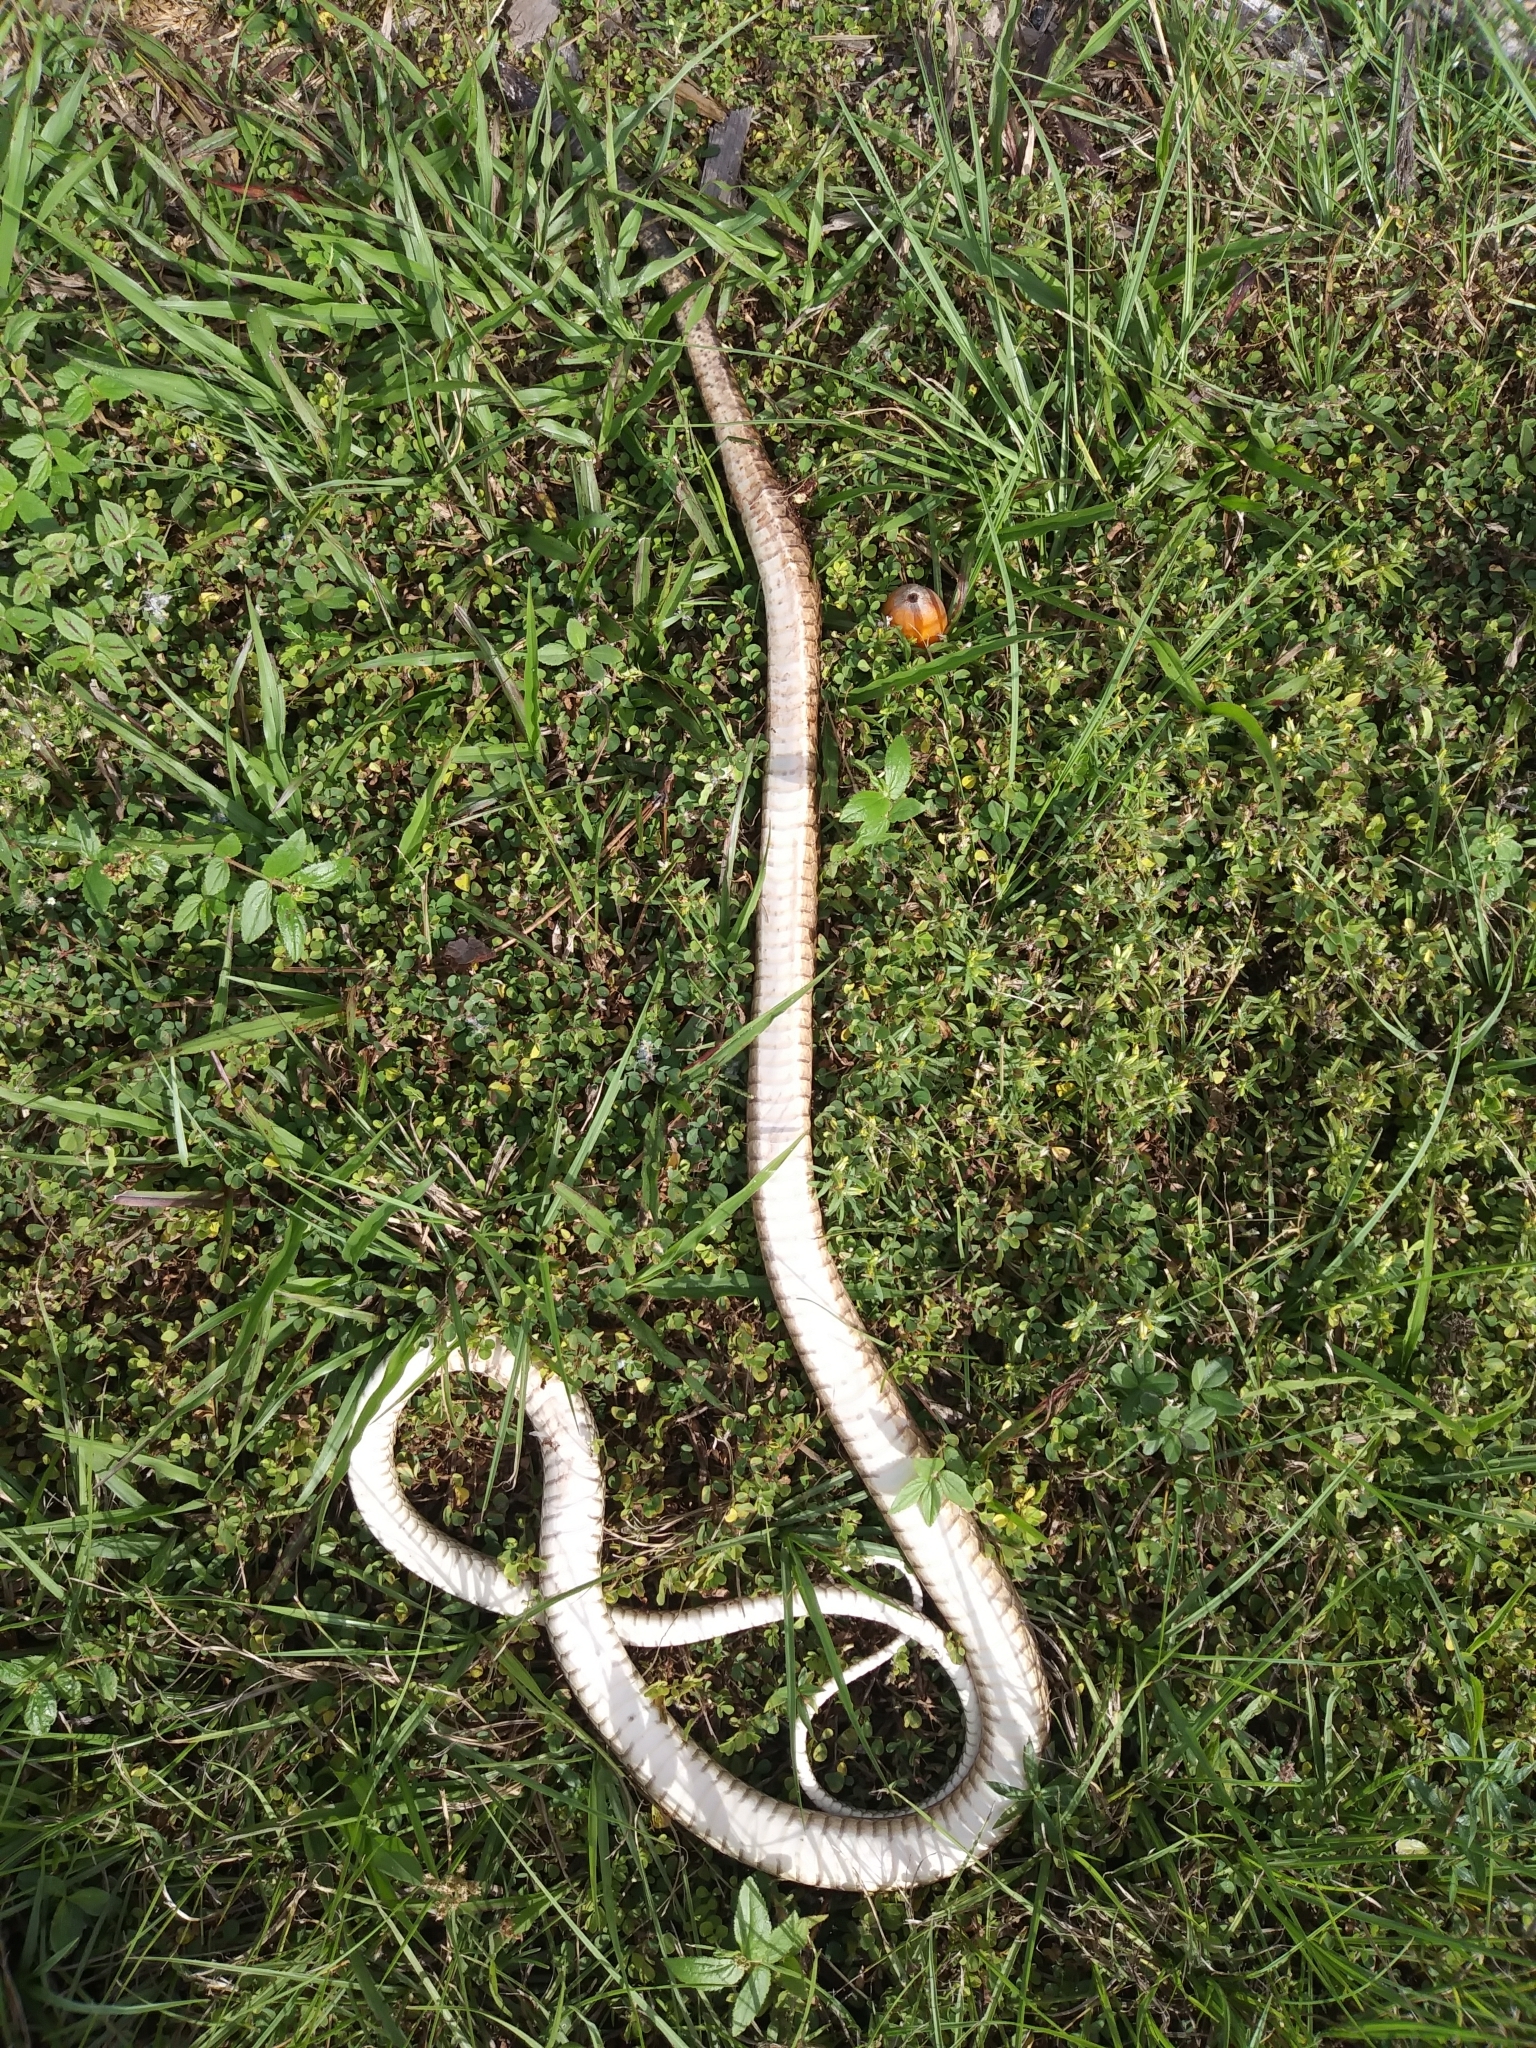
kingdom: Animalia
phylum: Chordata
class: Squamata
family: Colubridae
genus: Masticophis
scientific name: Masticophis flagellum
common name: Coachwhip
